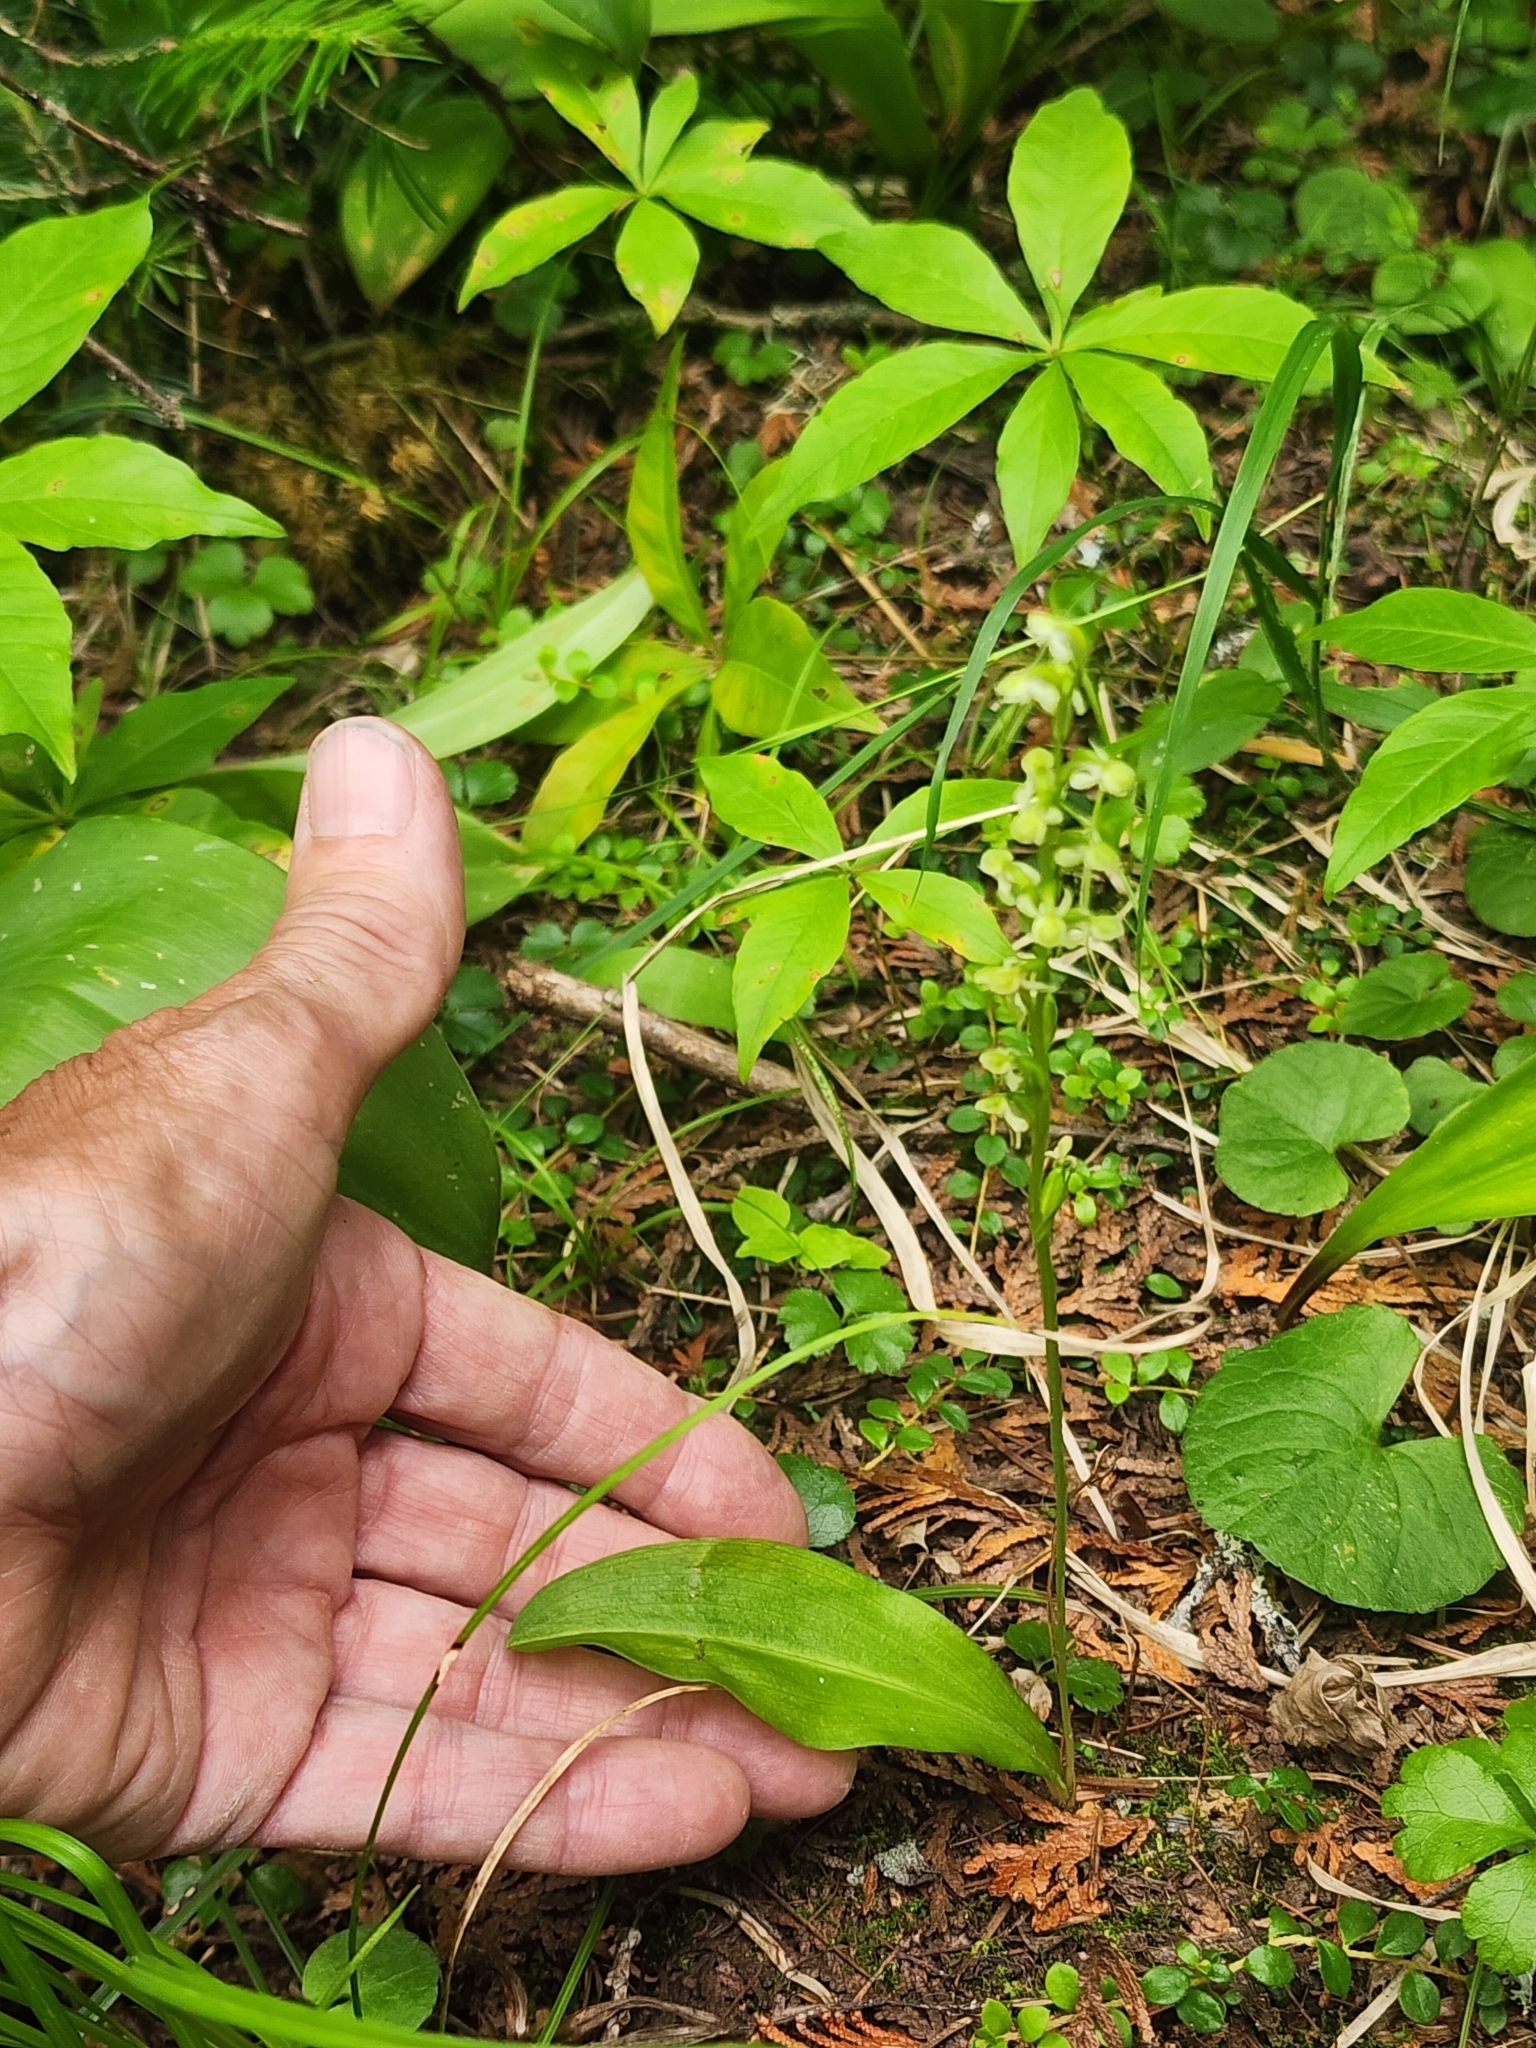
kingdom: Plantae
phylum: Tracheophyta
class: Liliopsida
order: Asparagales
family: Orchidaceae
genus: Platanthera
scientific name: Platanthera obtusata
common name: Blunt bog orchid
